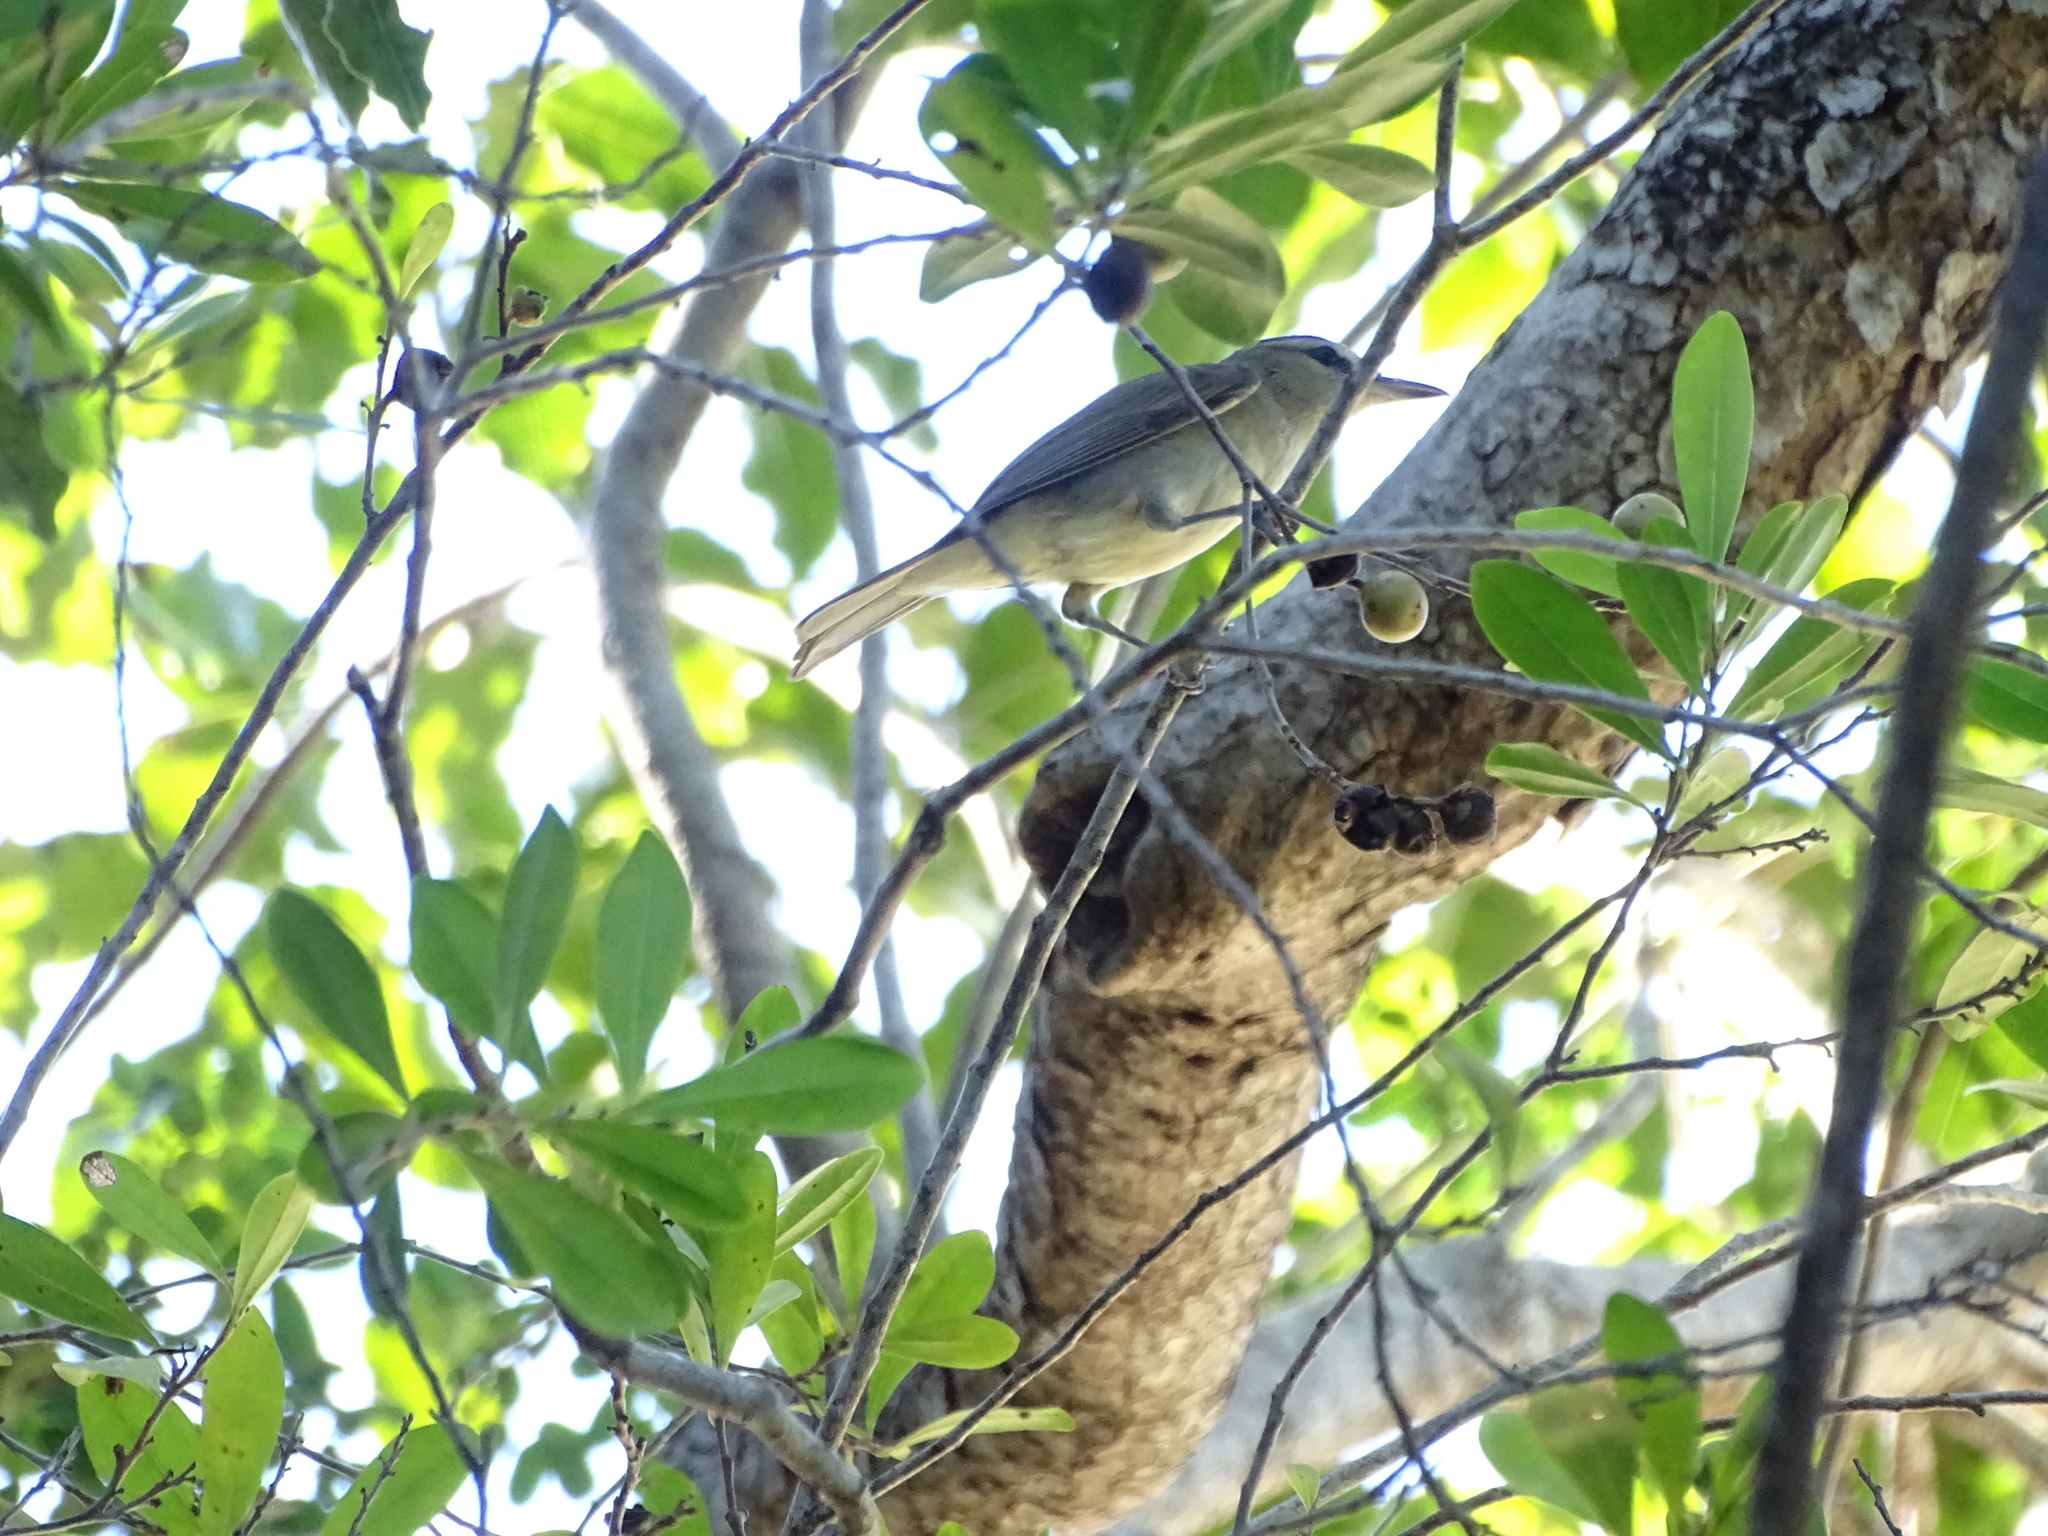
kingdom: Animalia
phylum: Chordata
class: Aves
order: Passeriformes
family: Vireonidae
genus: Vireo
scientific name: Vireo magister
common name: Yucatan vireo
